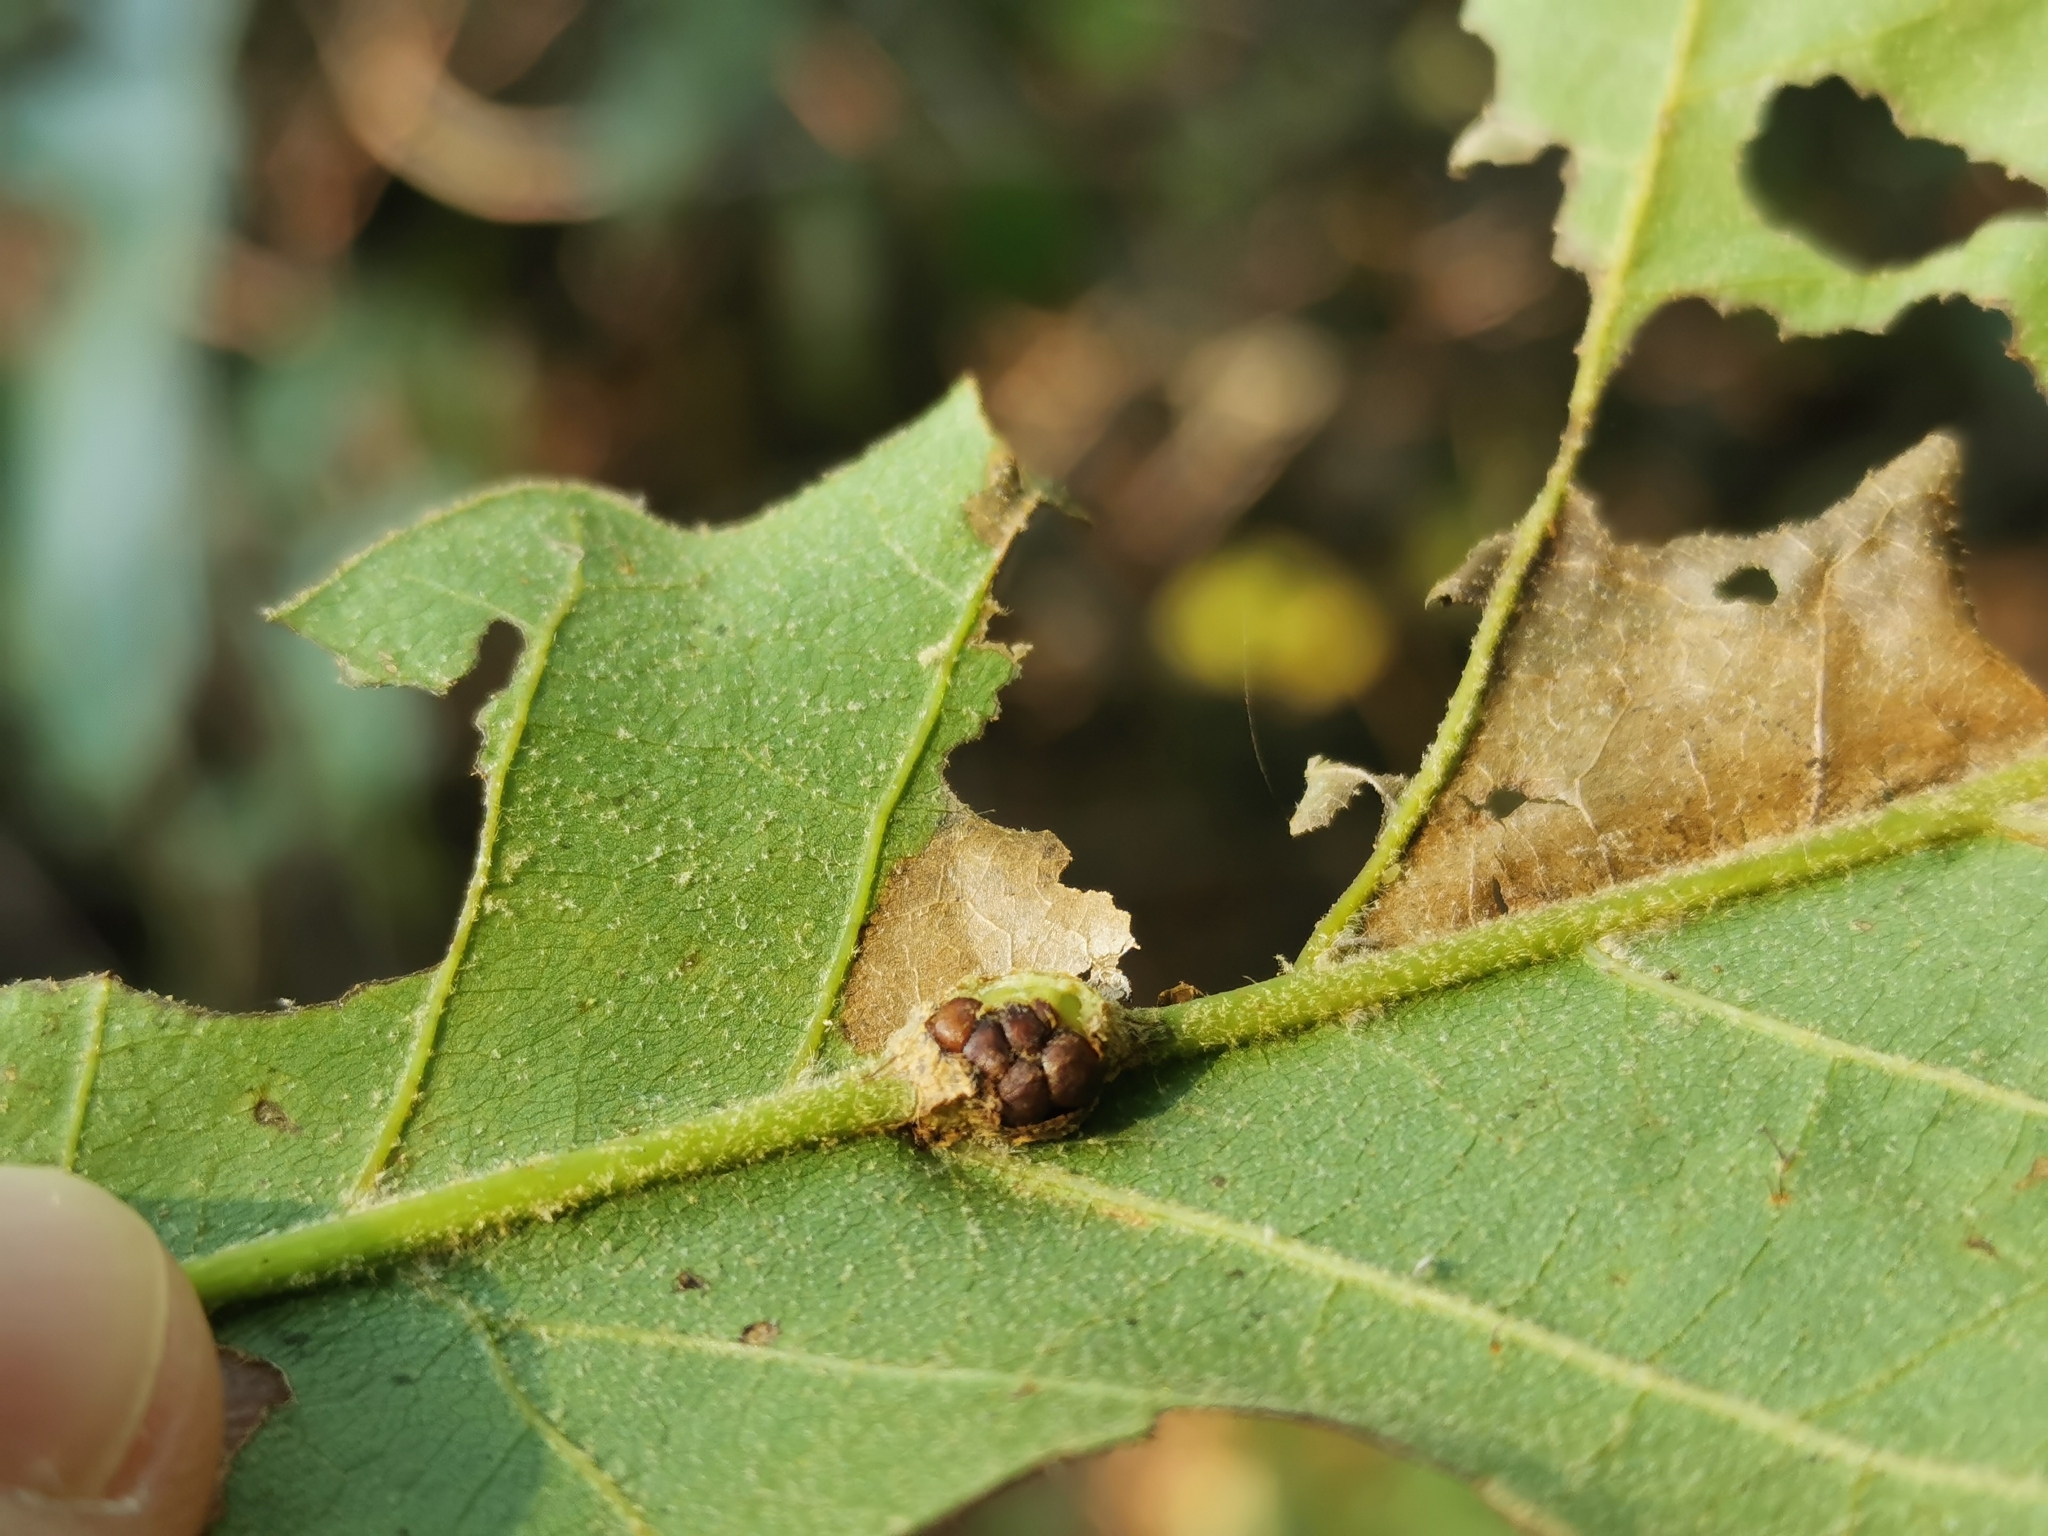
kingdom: Animalia
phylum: Arthropoda
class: Insecta
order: Hymenoptera
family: Cynipidae
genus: Kokkocynips
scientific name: Kokkocynips decidua
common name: Oak wheat gall
